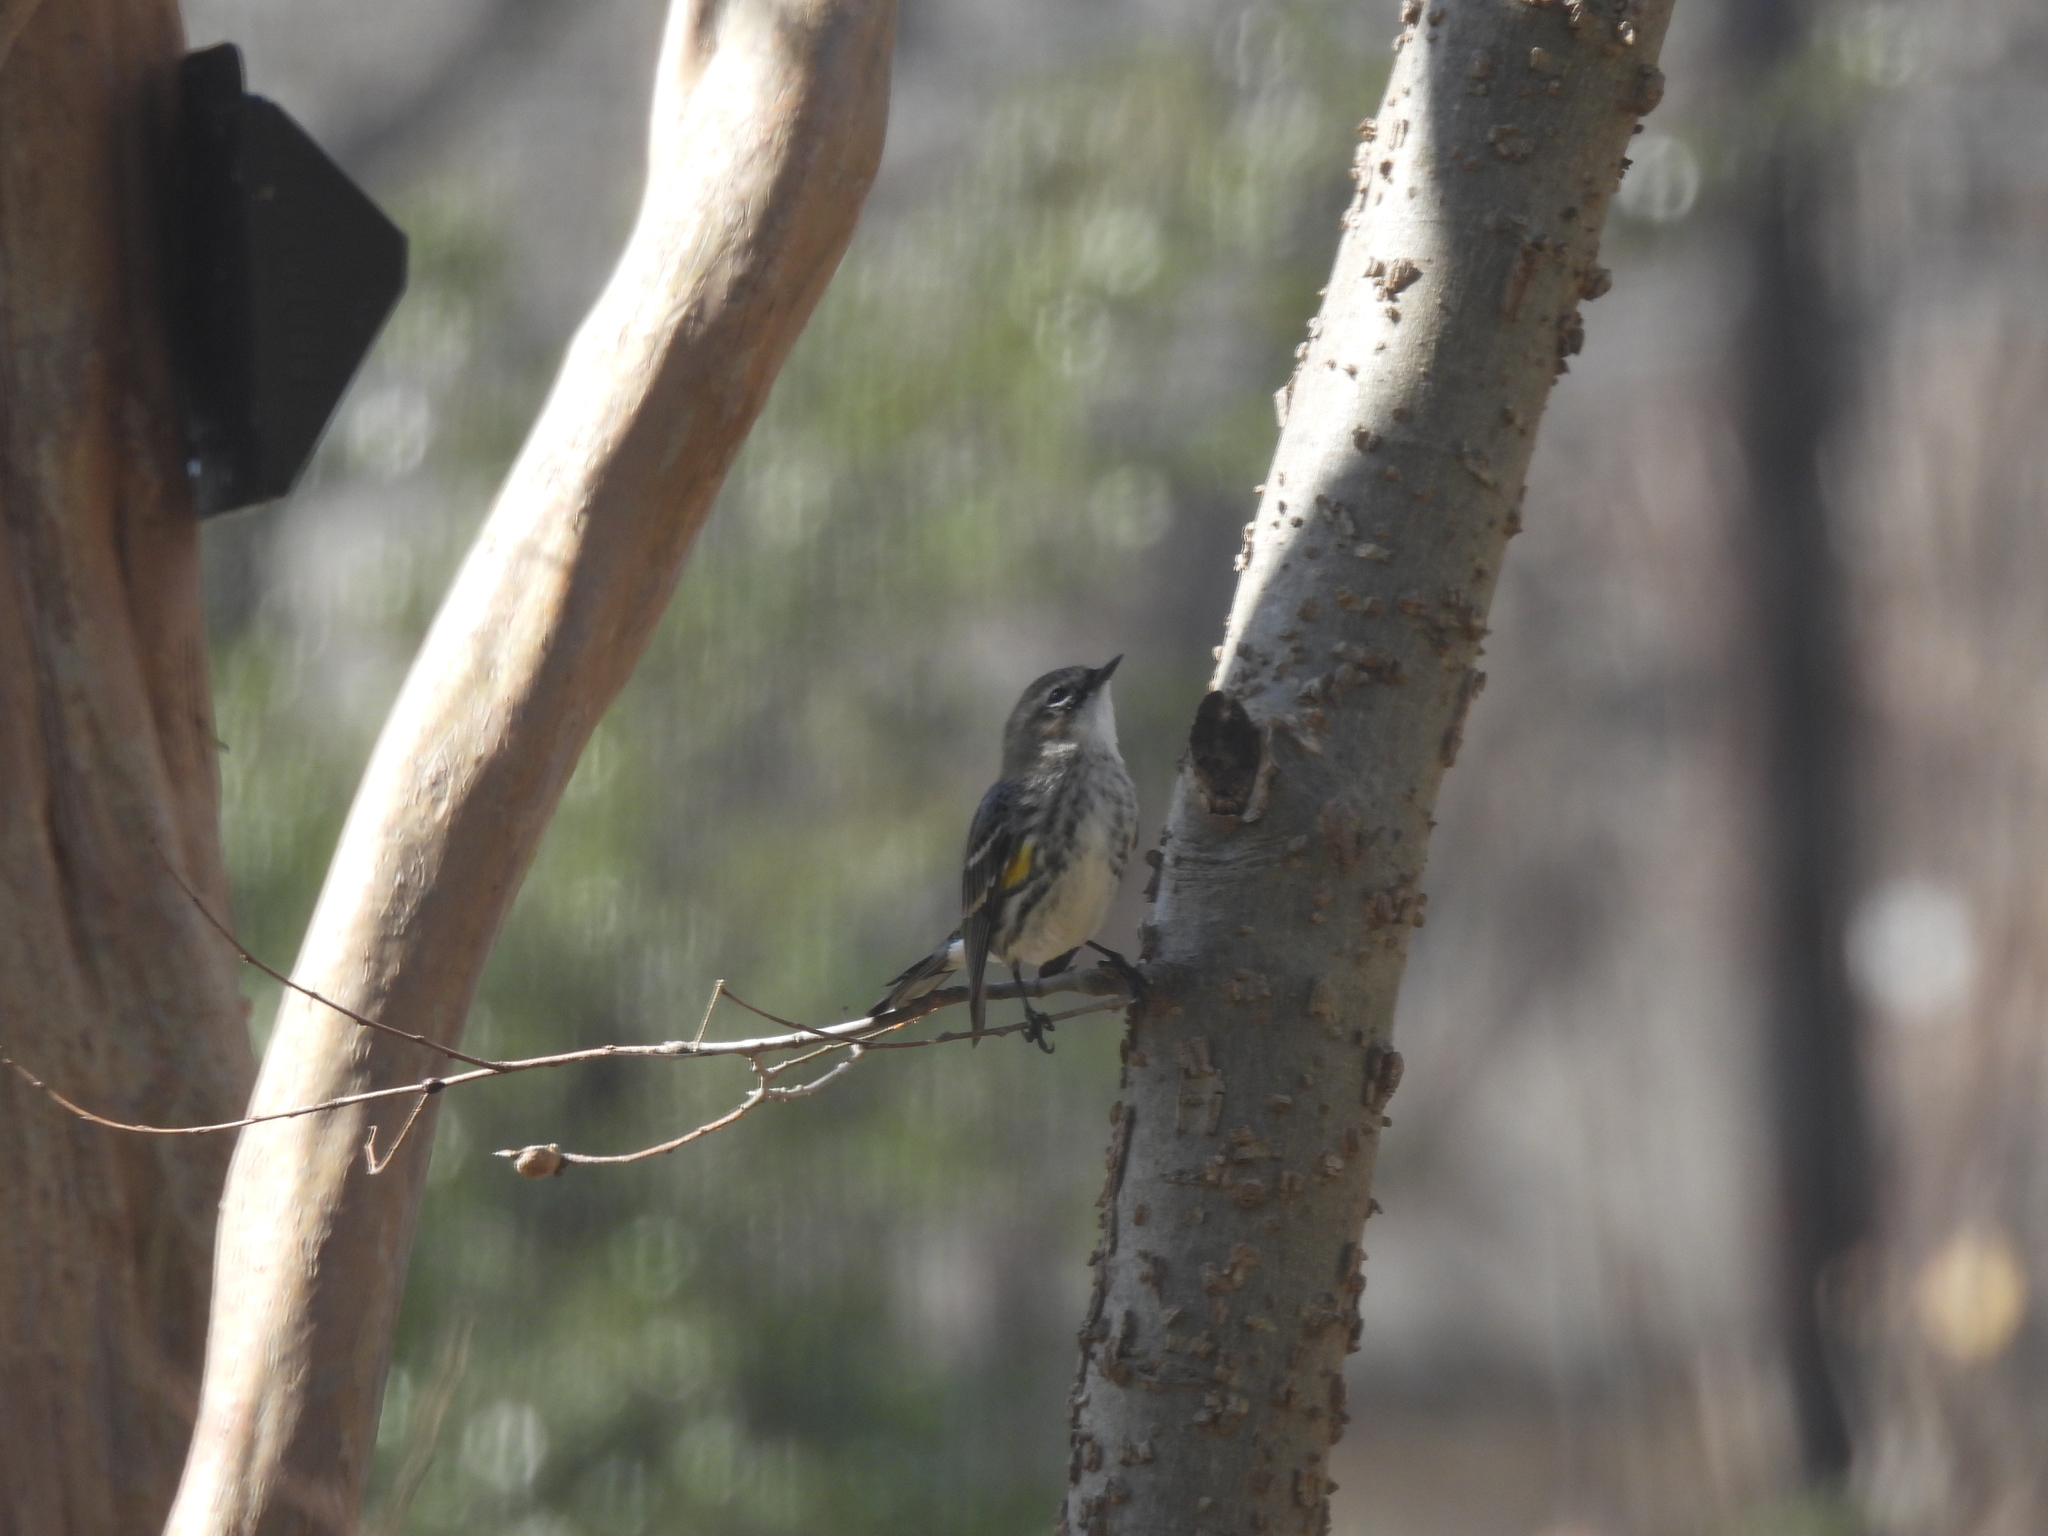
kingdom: Animalia
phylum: Chordata
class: Aves
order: Passeriformes
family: Parulidae
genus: Setophaga
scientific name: Setophaga coronata
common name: Myrtle warbler
